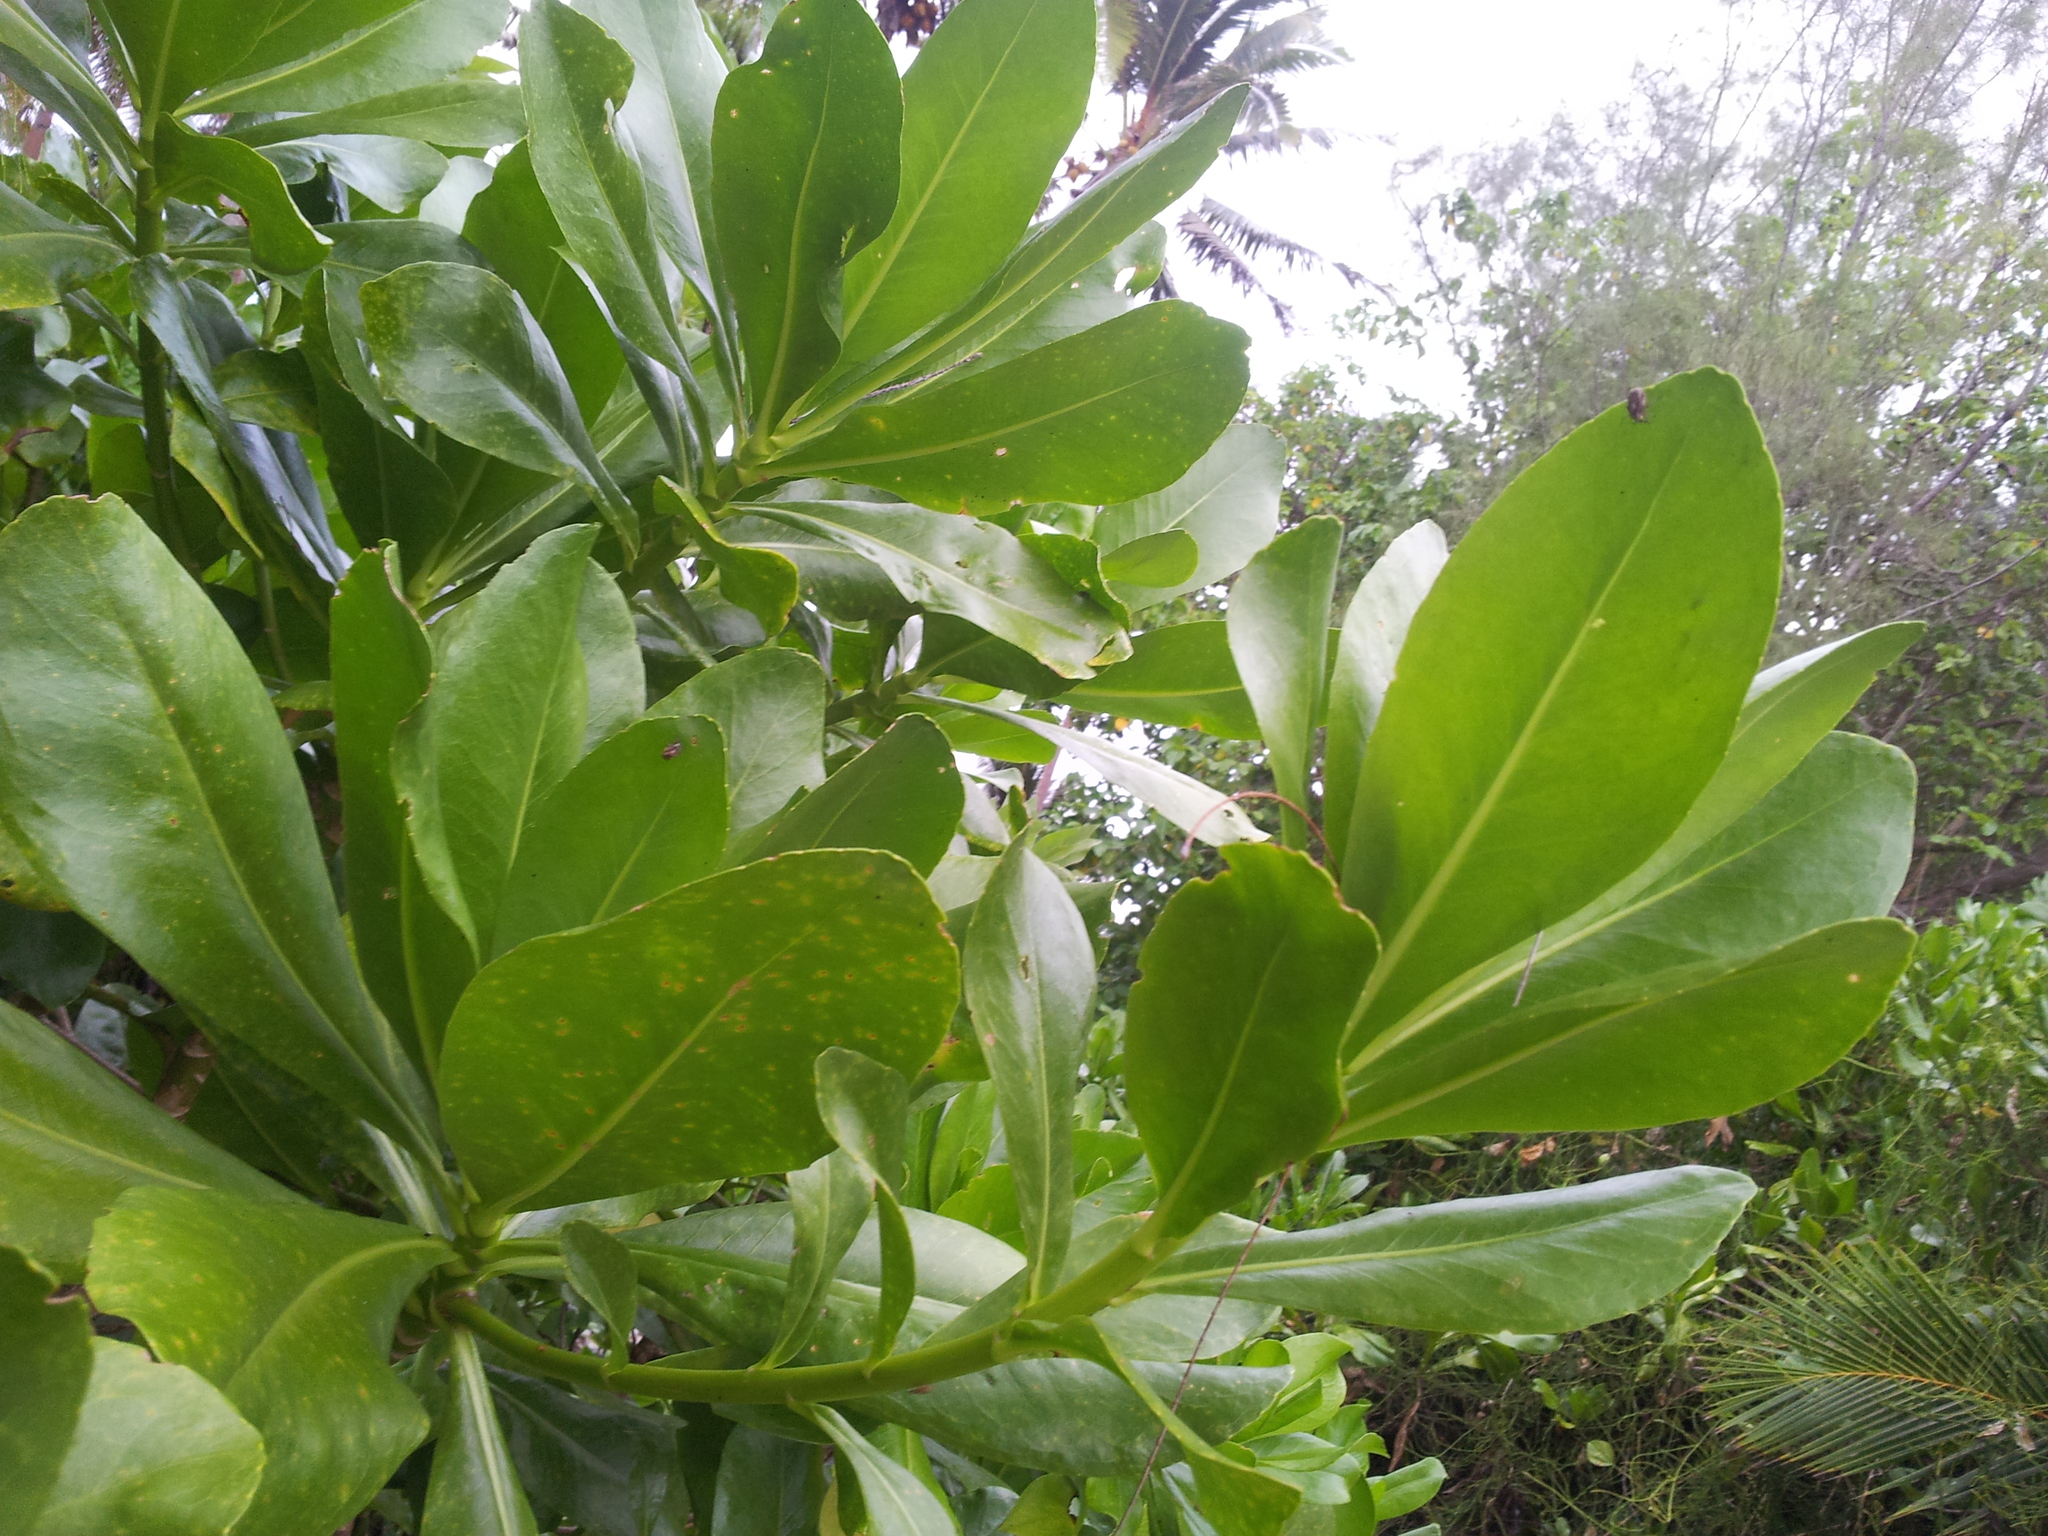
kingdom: Plantae
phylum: Tracheophyta
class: Magnoliopsida
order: Asterales
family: Goodeniaceae
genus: Scaevola
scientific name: Scaevola taccada
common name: Sea lettucetree
